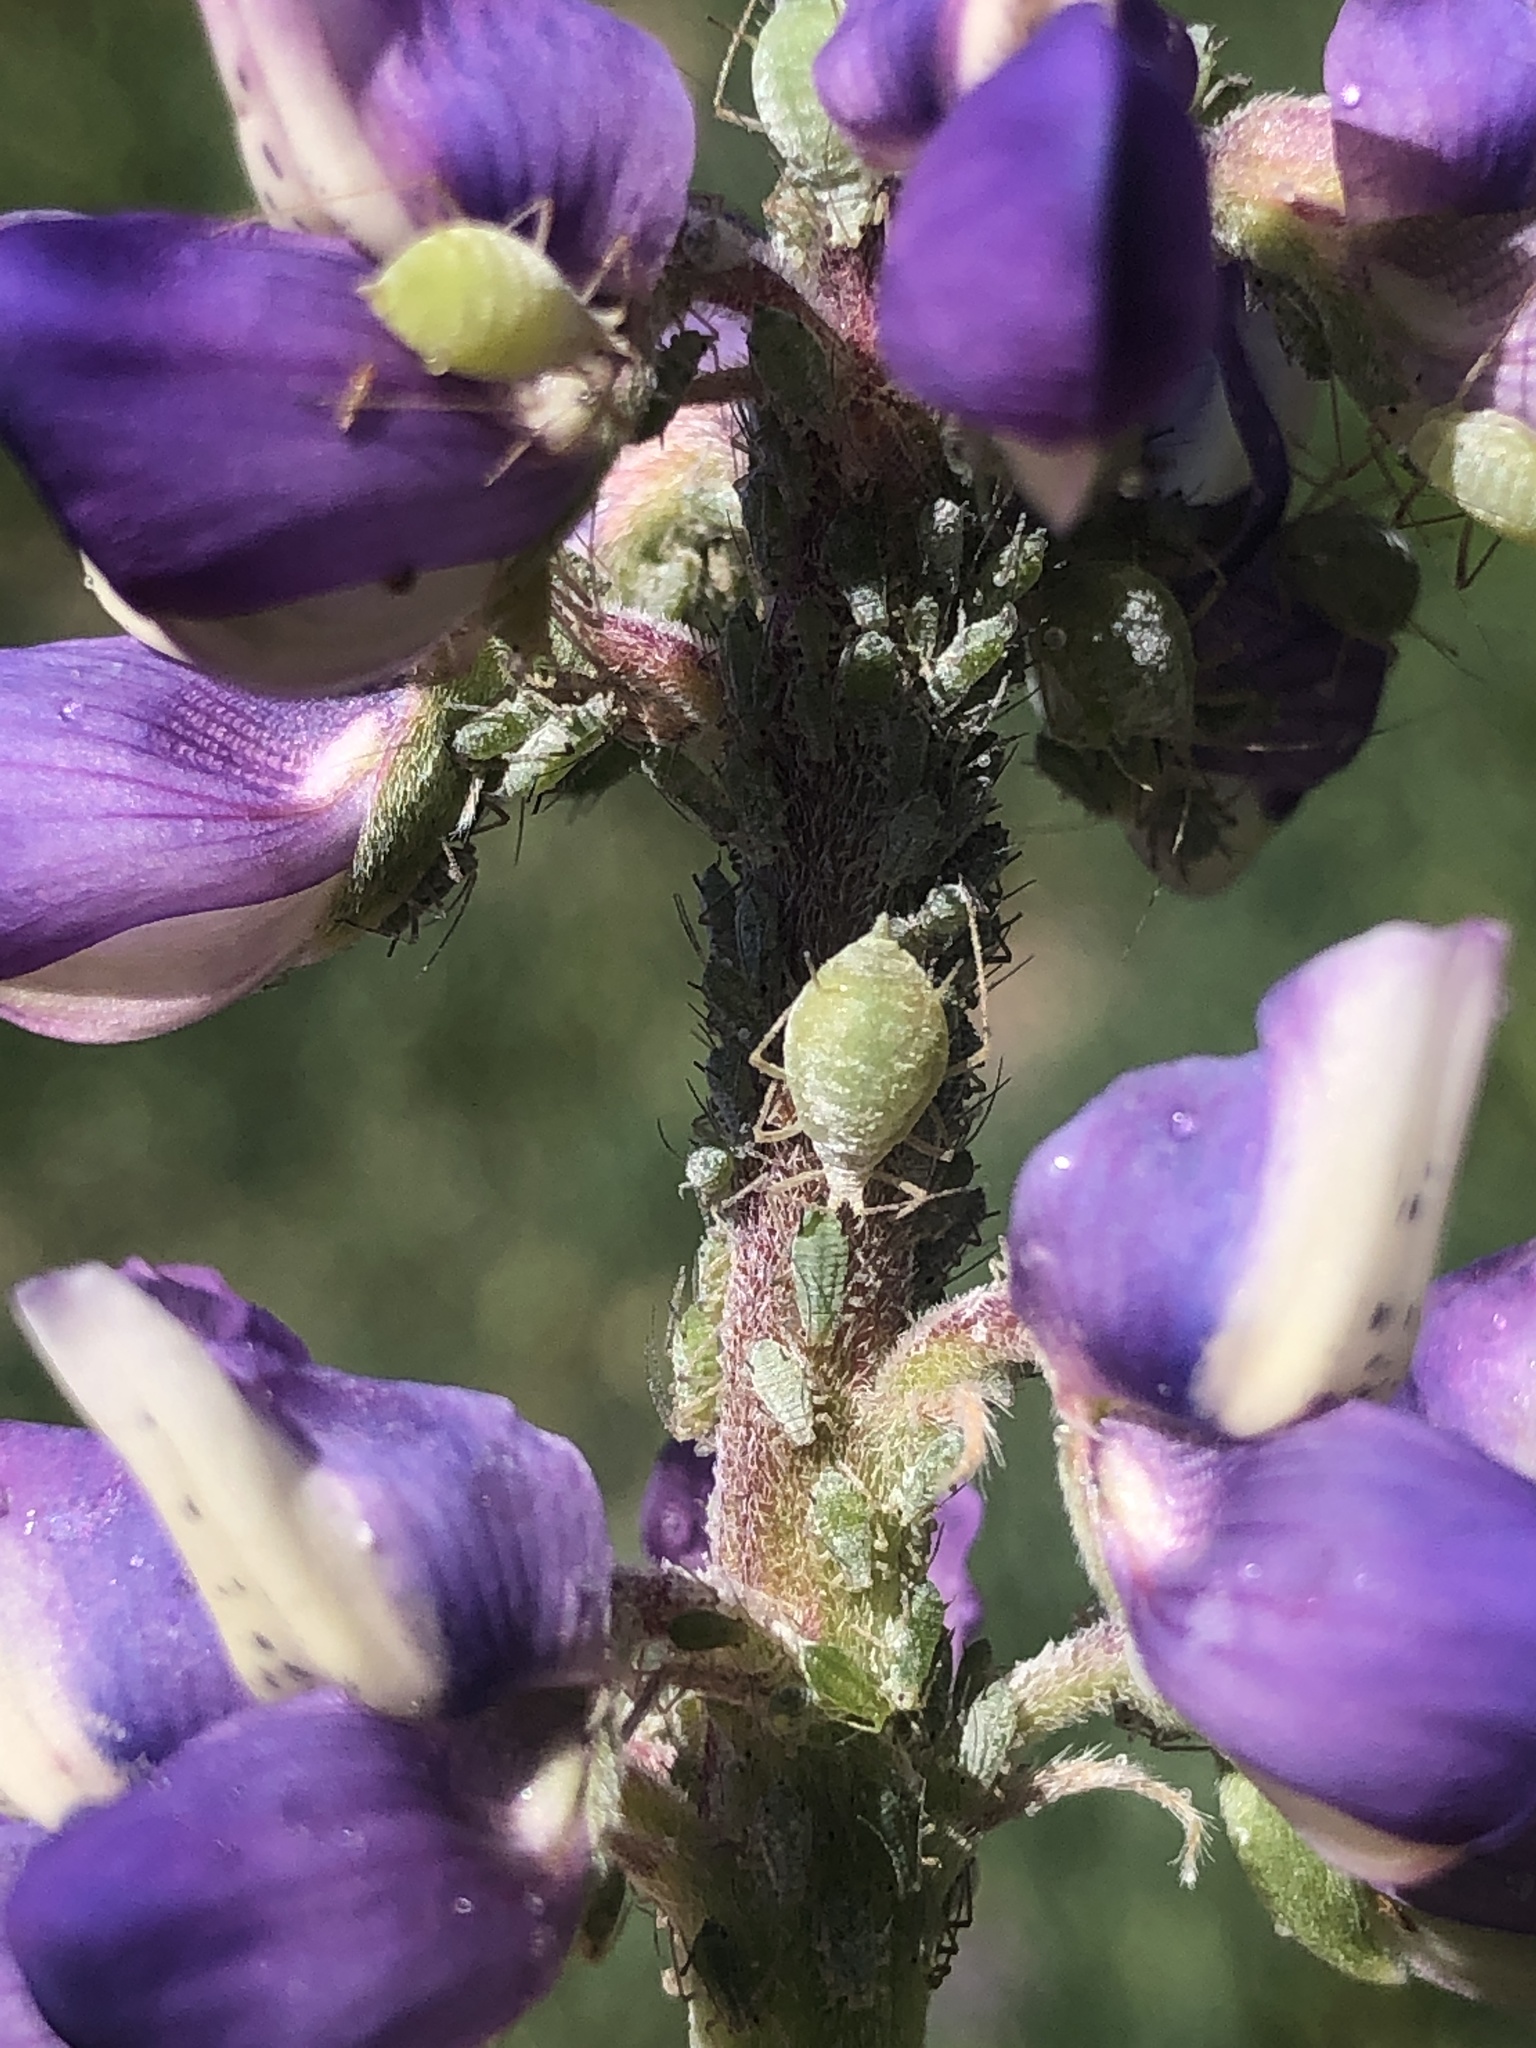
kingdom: Animalia
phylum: Arthropoda
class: Insecta
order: Hemiptera
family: Aphididae
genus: Macrosiphum
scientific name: Macrosiphum albifrons
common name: Lupine aphid
